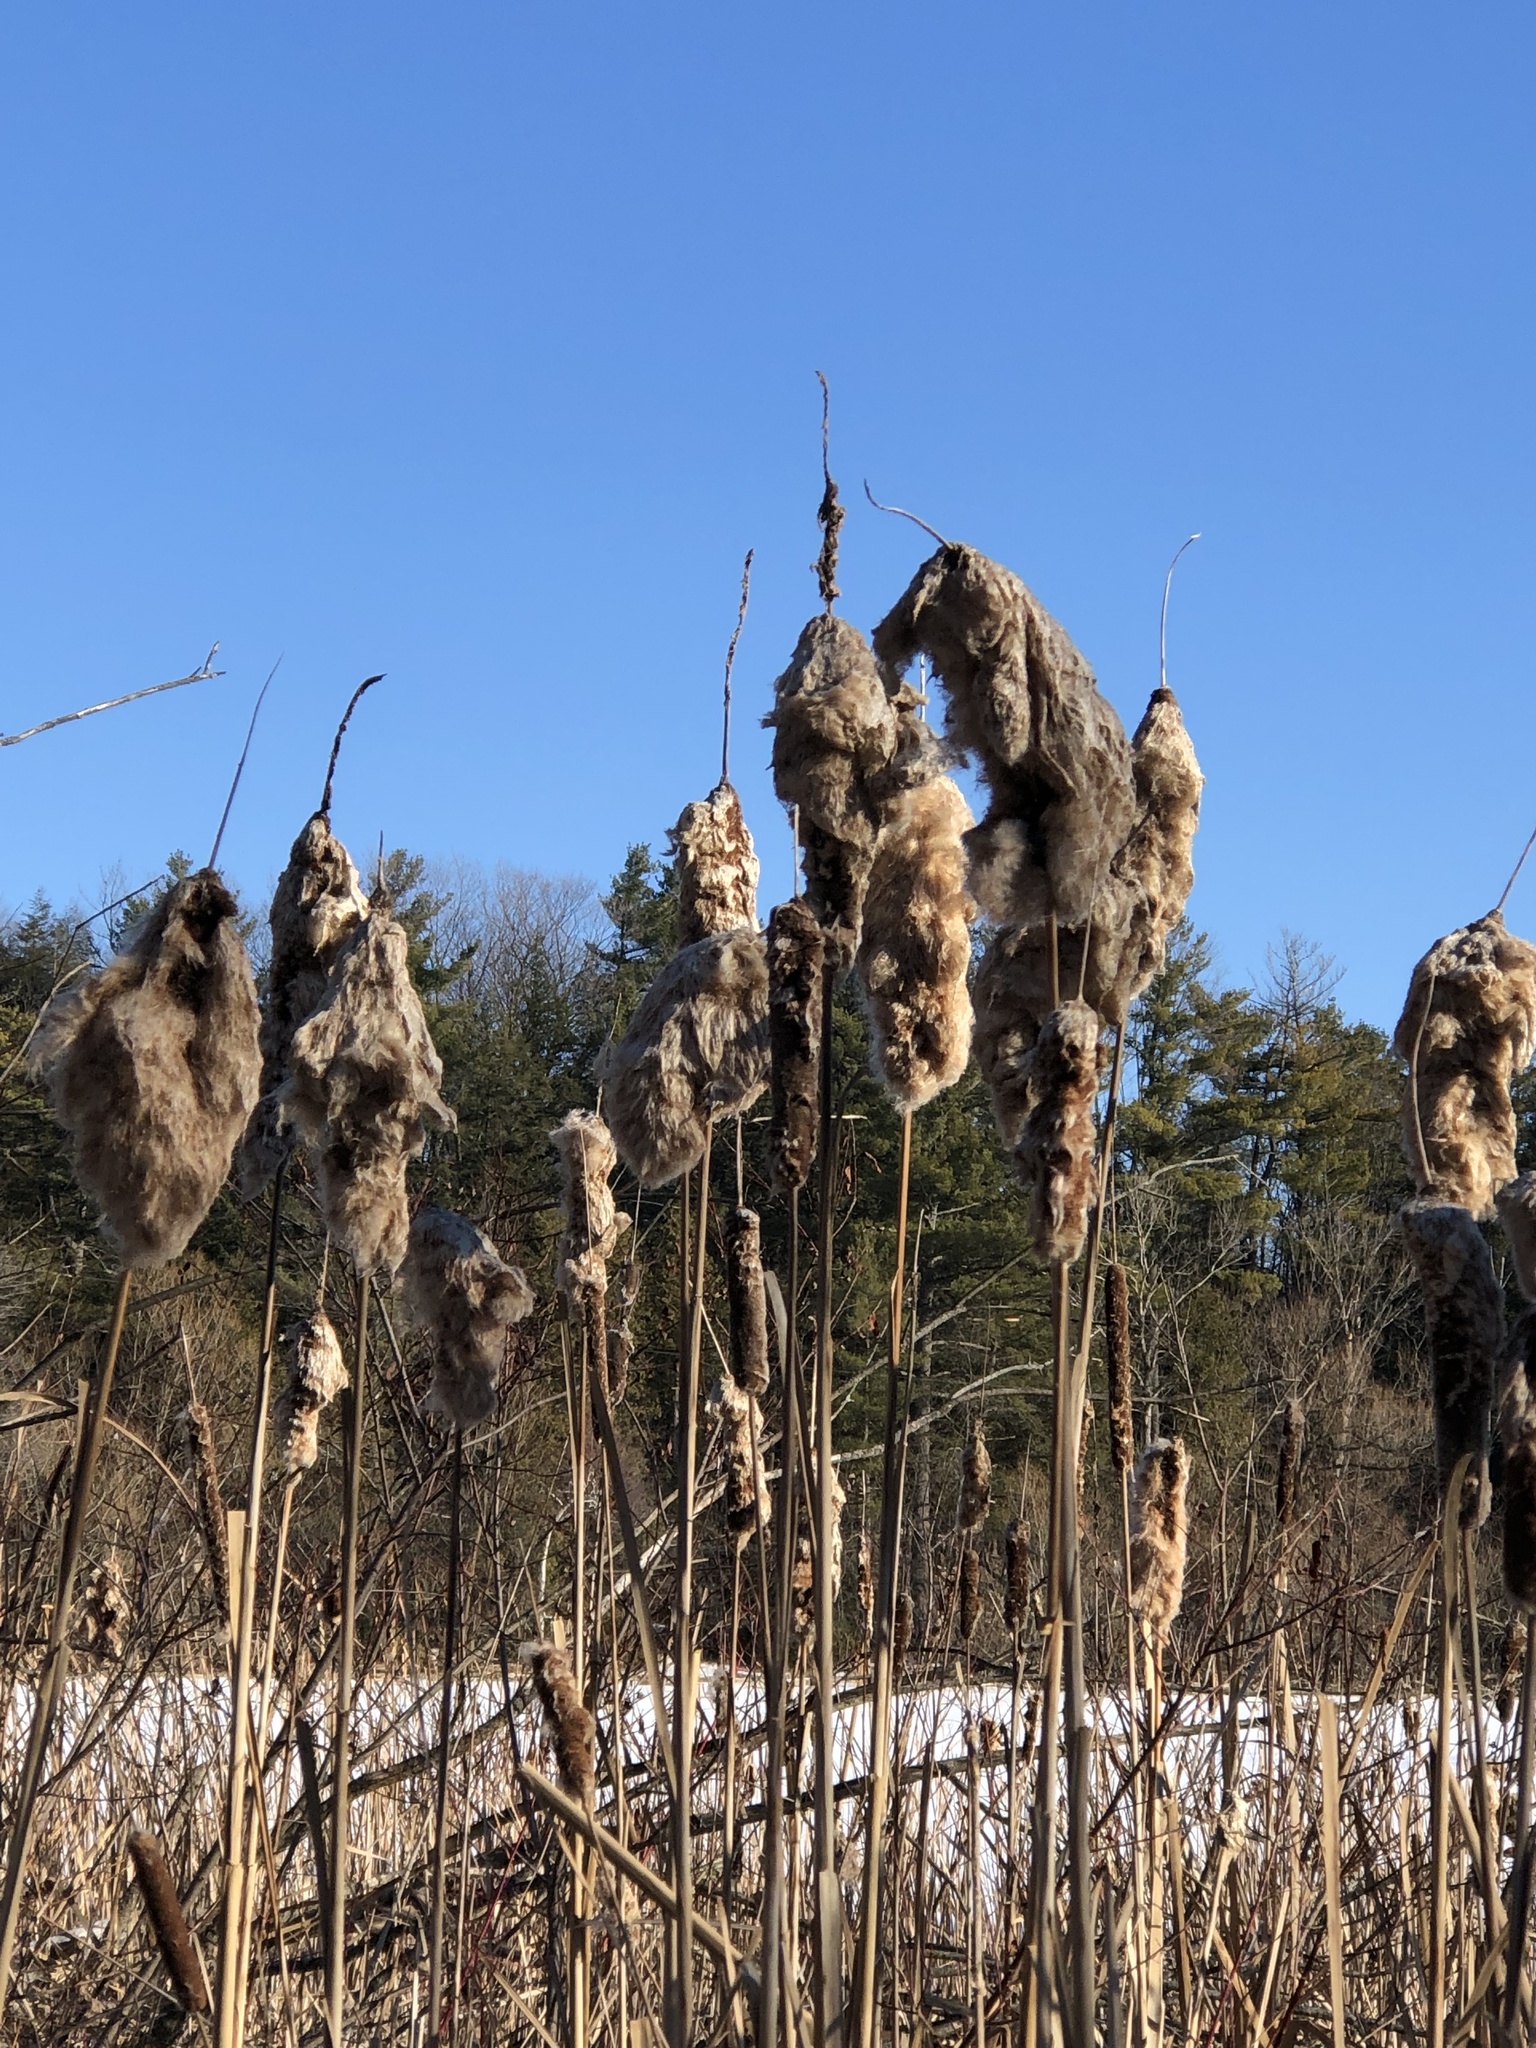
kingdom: Plantae
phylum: Tracheophyta
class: Liliopsida
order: Poales
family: Typhaceae
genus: Typha
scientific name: Typha latifolia
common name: Broadleaf cattail
